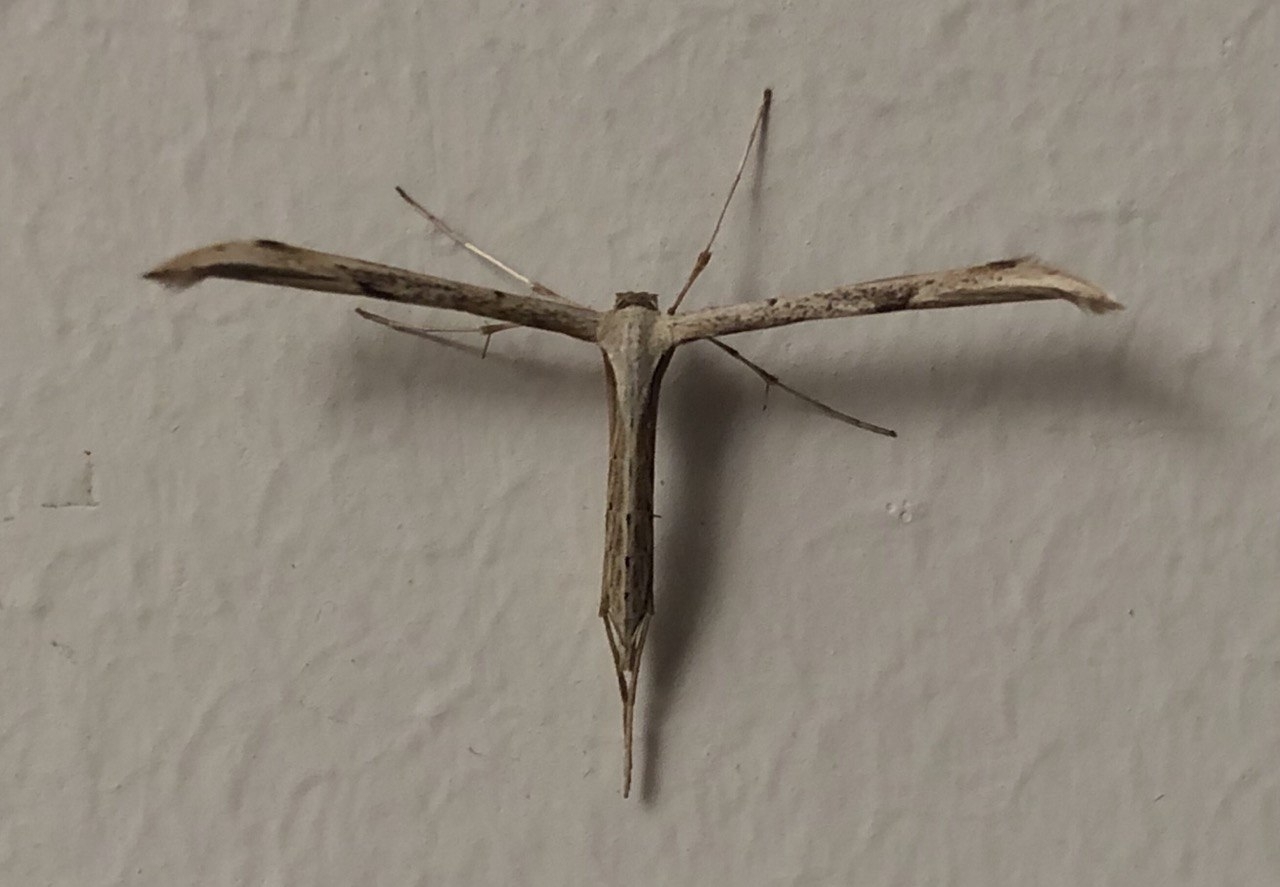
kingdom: Animalia
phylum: Arthropoda
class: Insecta
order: Lepidoptera
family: Pterophoridae
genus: Emmelina
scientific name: Emmelina monodactyla
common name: Common plume
